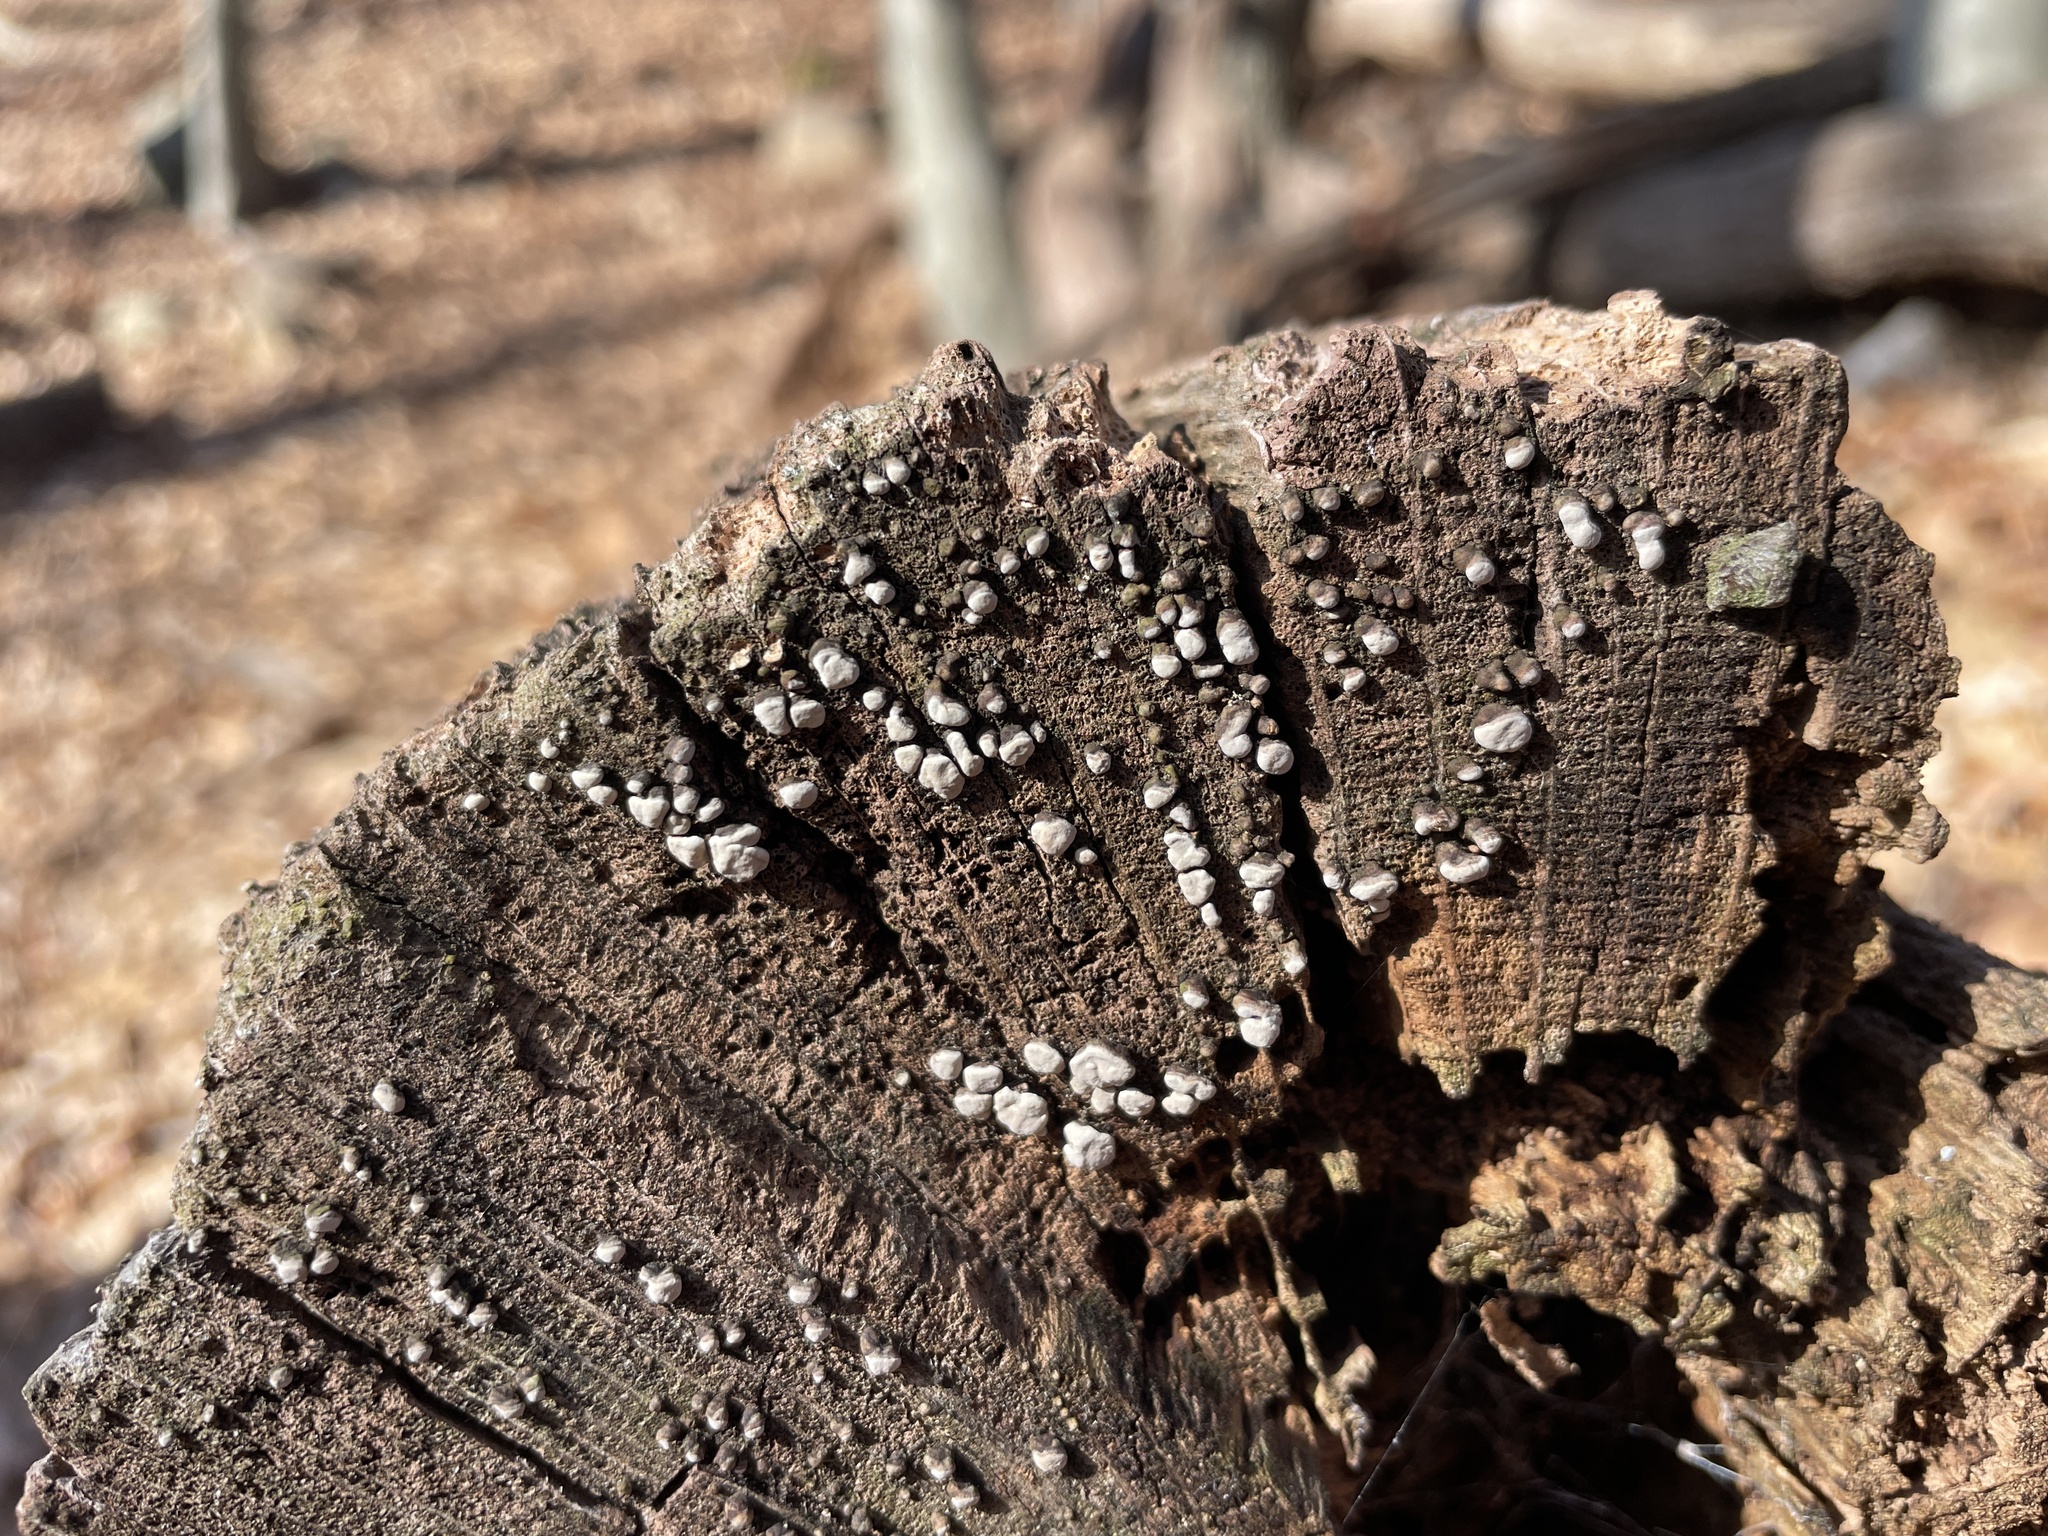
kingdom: Fungi
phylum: Basidiomycota
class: Agaricomycetes
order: Russulales
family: Stereaceae
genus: Xylobolus
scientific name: Xylobolus frustulatus
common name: Ceramic parchment
